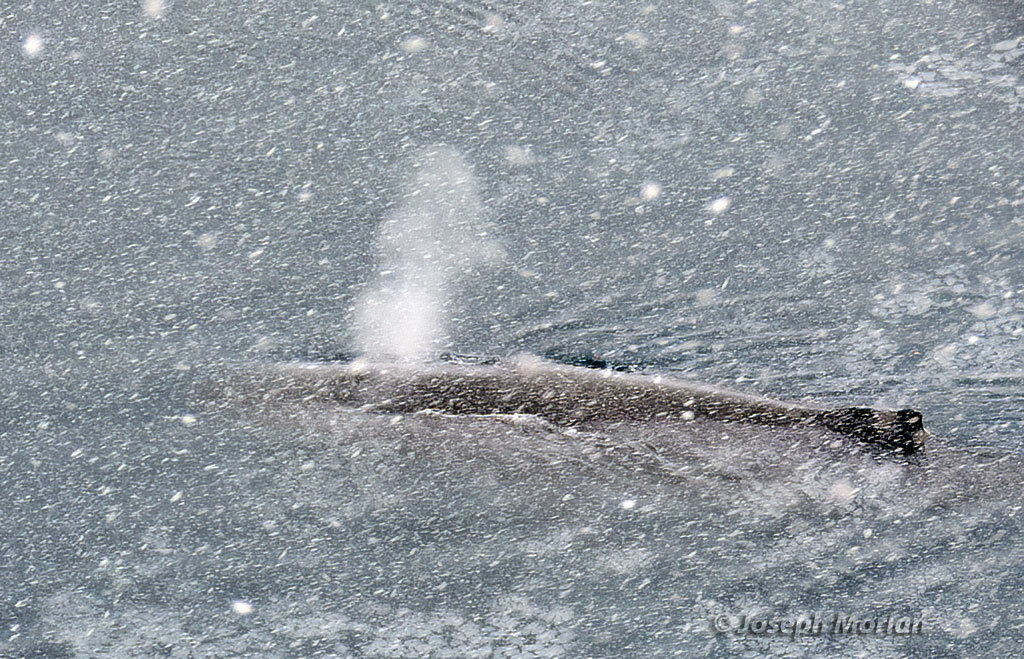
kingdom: Animalia
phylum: Chordata
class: Mammalia
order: Cetacea
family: Balaenopteridae
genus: Megaptera
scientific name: Megaptera novaeangliae
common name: Humpback whale
